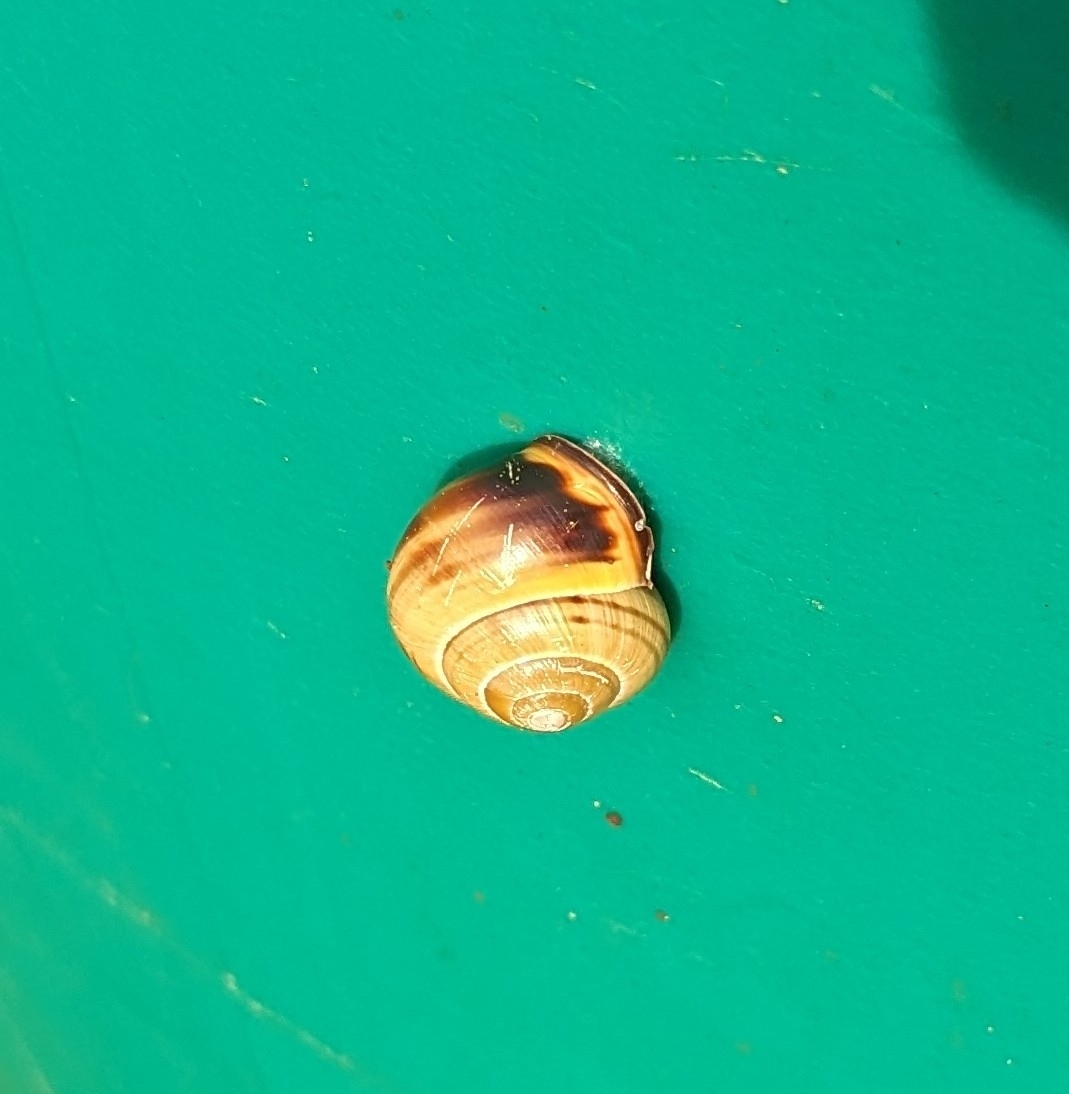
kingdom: Animalia
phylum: Mollusca
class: Gastropoda
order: Stylommatophora
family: Helicidae
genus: Cepaea
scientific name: Cepaea nemoralis
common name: Grovesnail
